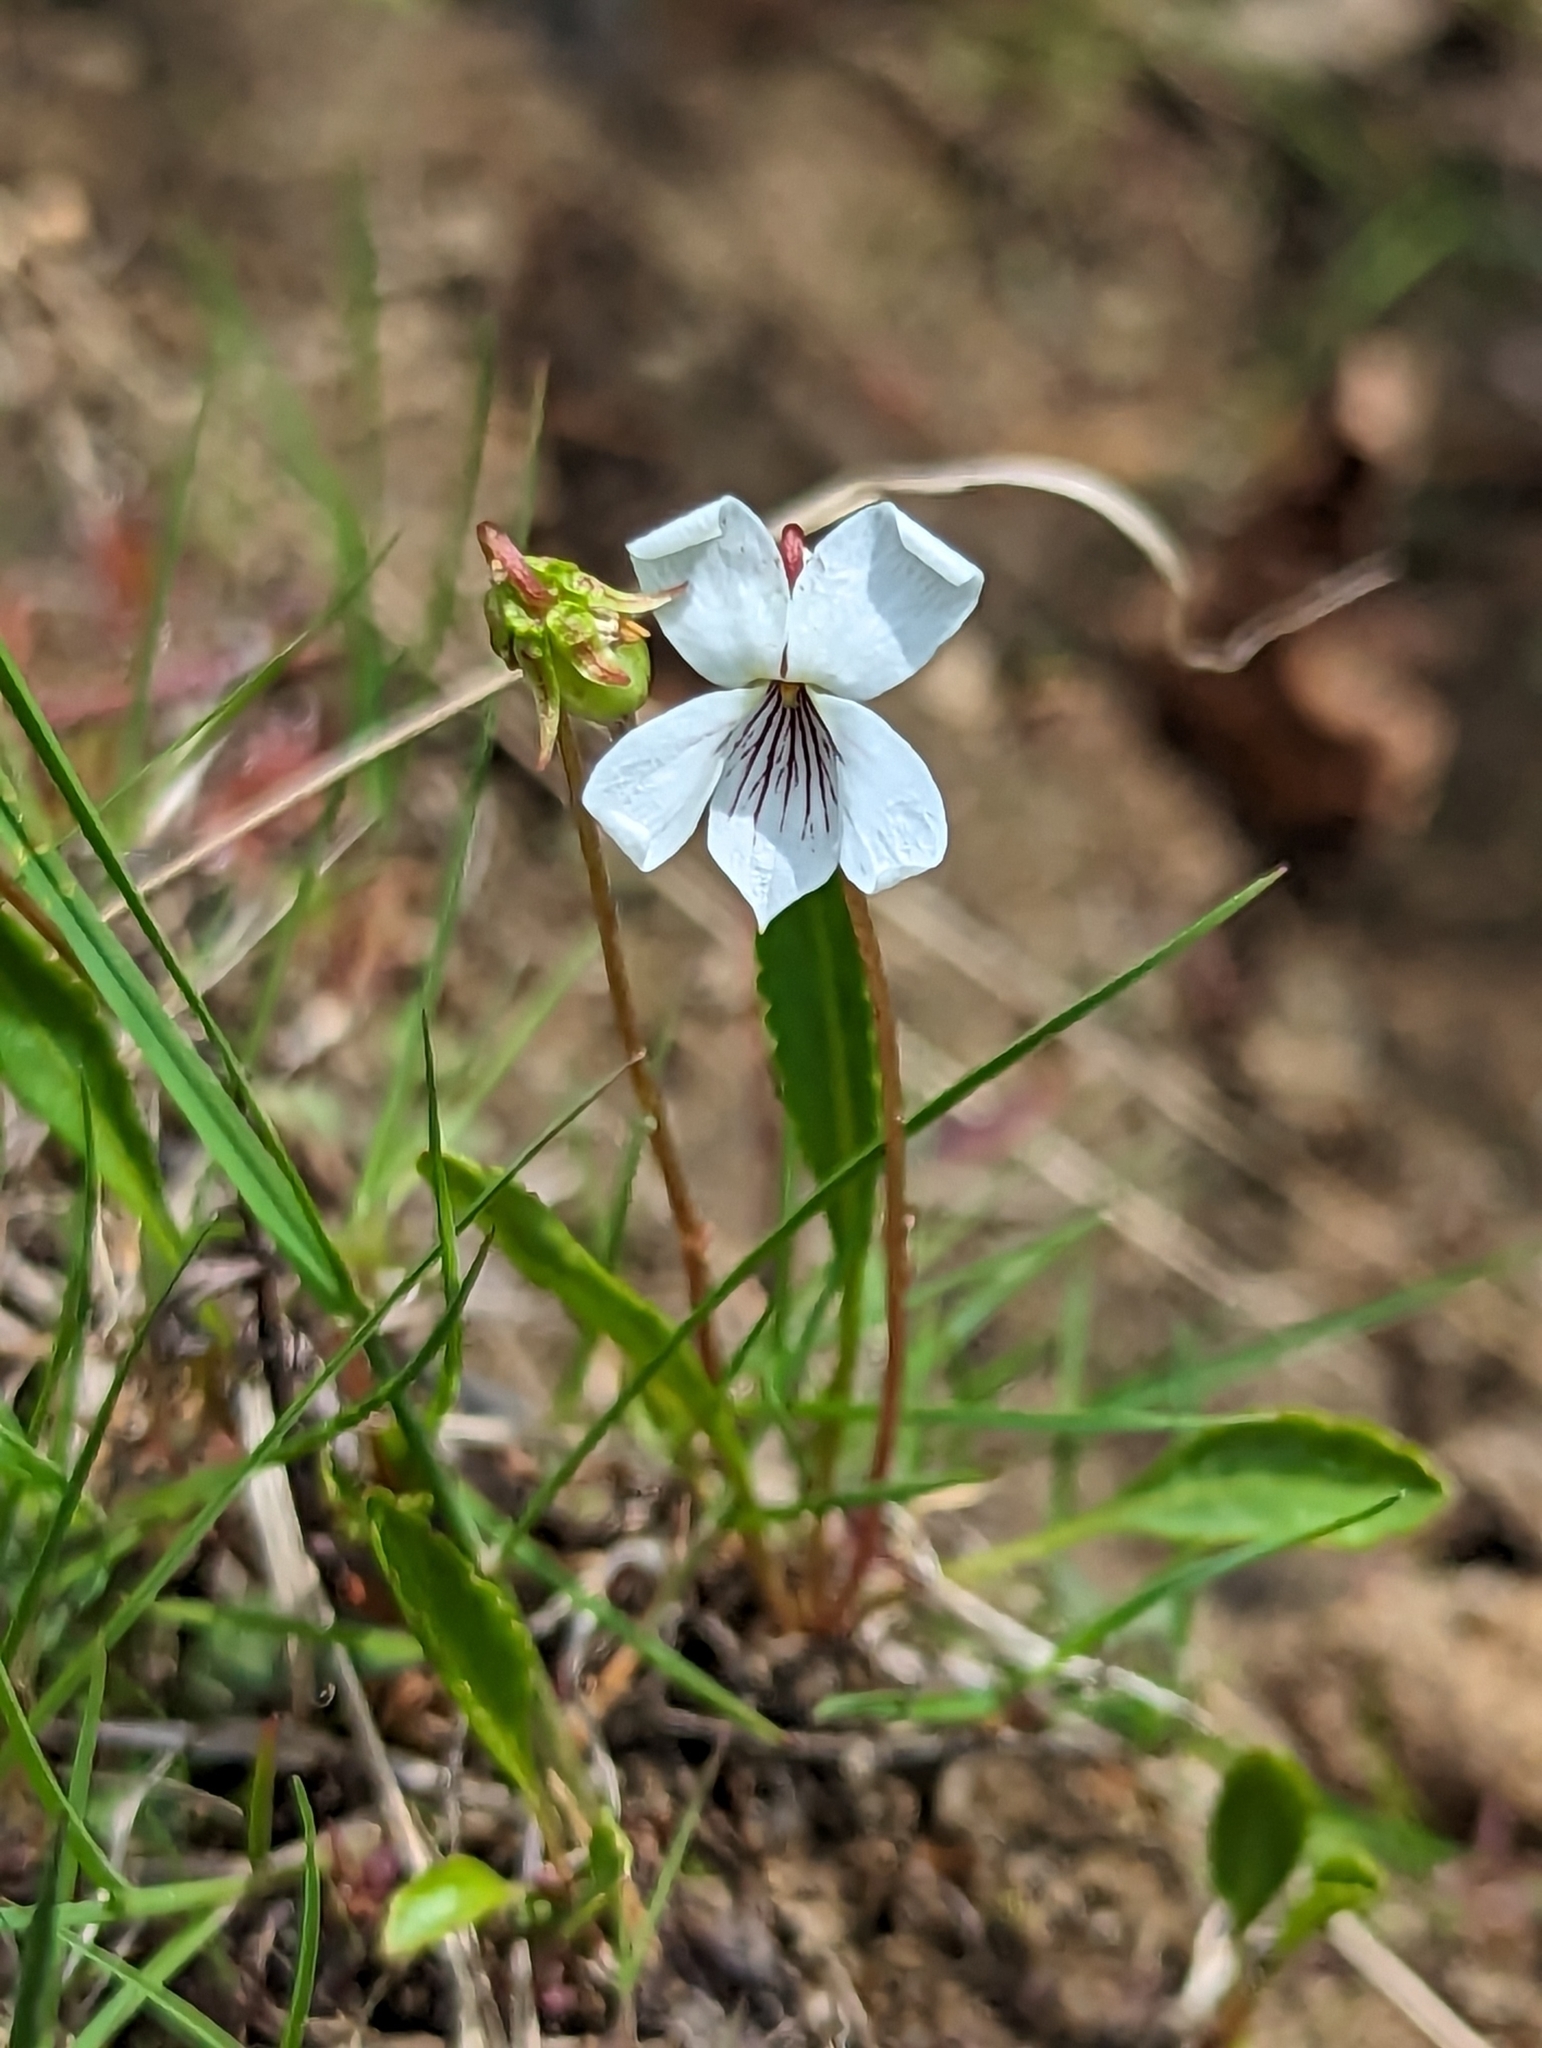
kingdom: Plantae
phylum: Tracheophyta
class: Magnoliopsida
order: Malpighiales
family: Violaceae
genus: Viola
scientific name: Viola lanceolata
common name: Bog white violet
